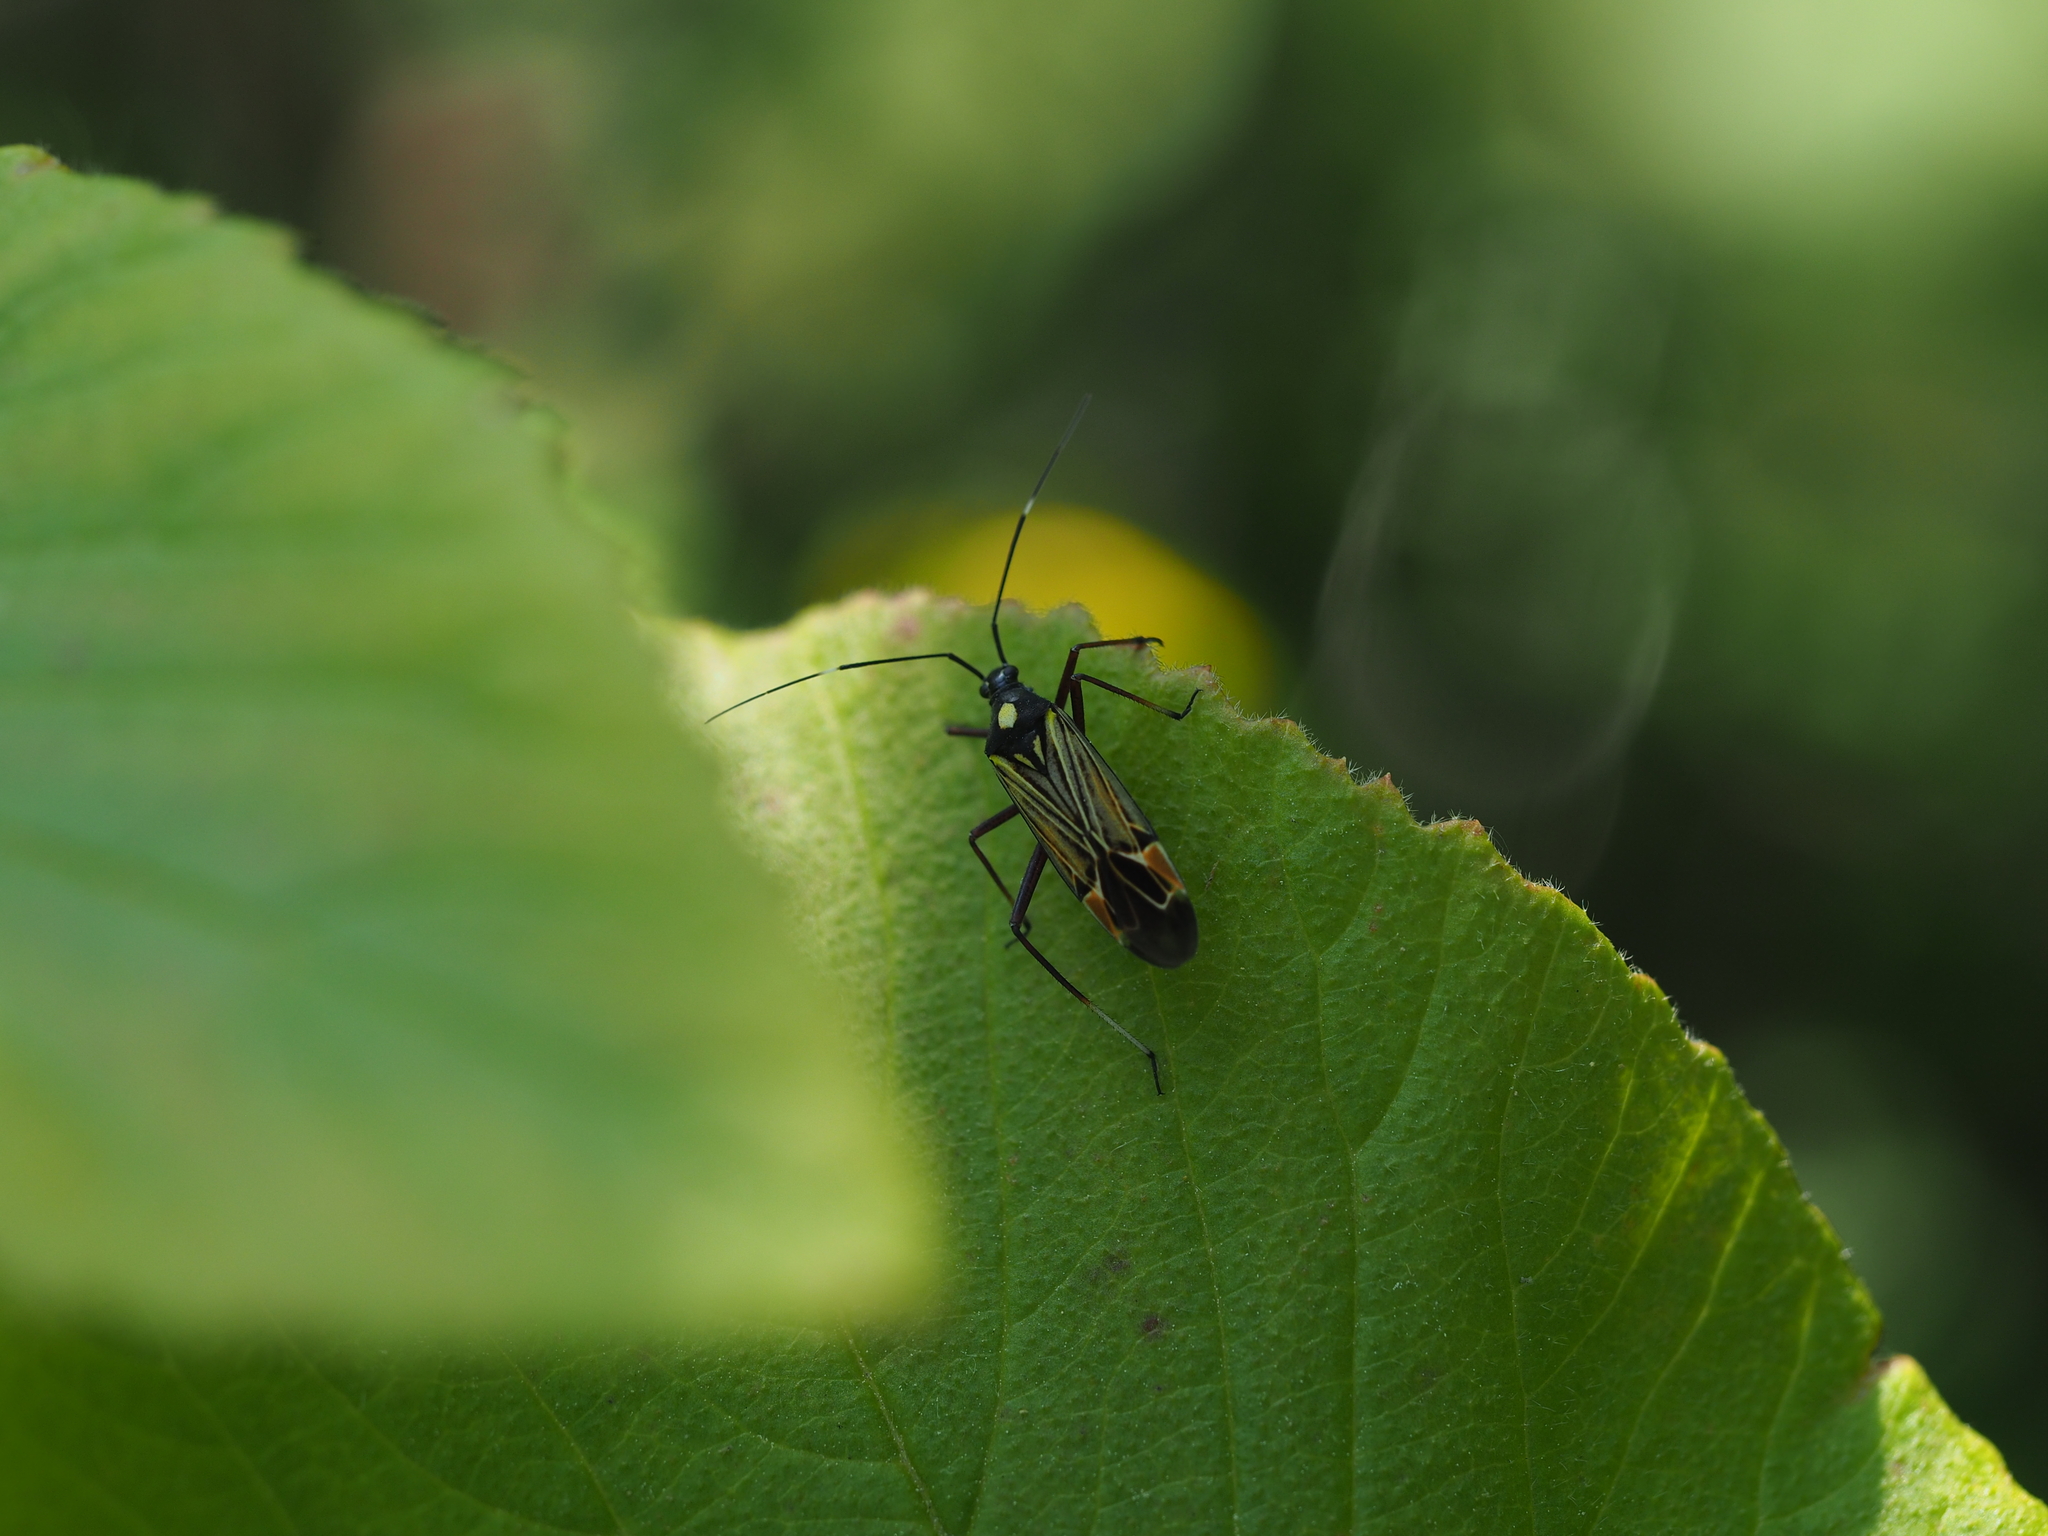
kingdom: Animalia
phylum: Arthropoda
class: Insecta
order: Hemiptera
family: Miridae
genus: Miris
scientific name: Miris striatus
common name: Fine streaked bugkin
